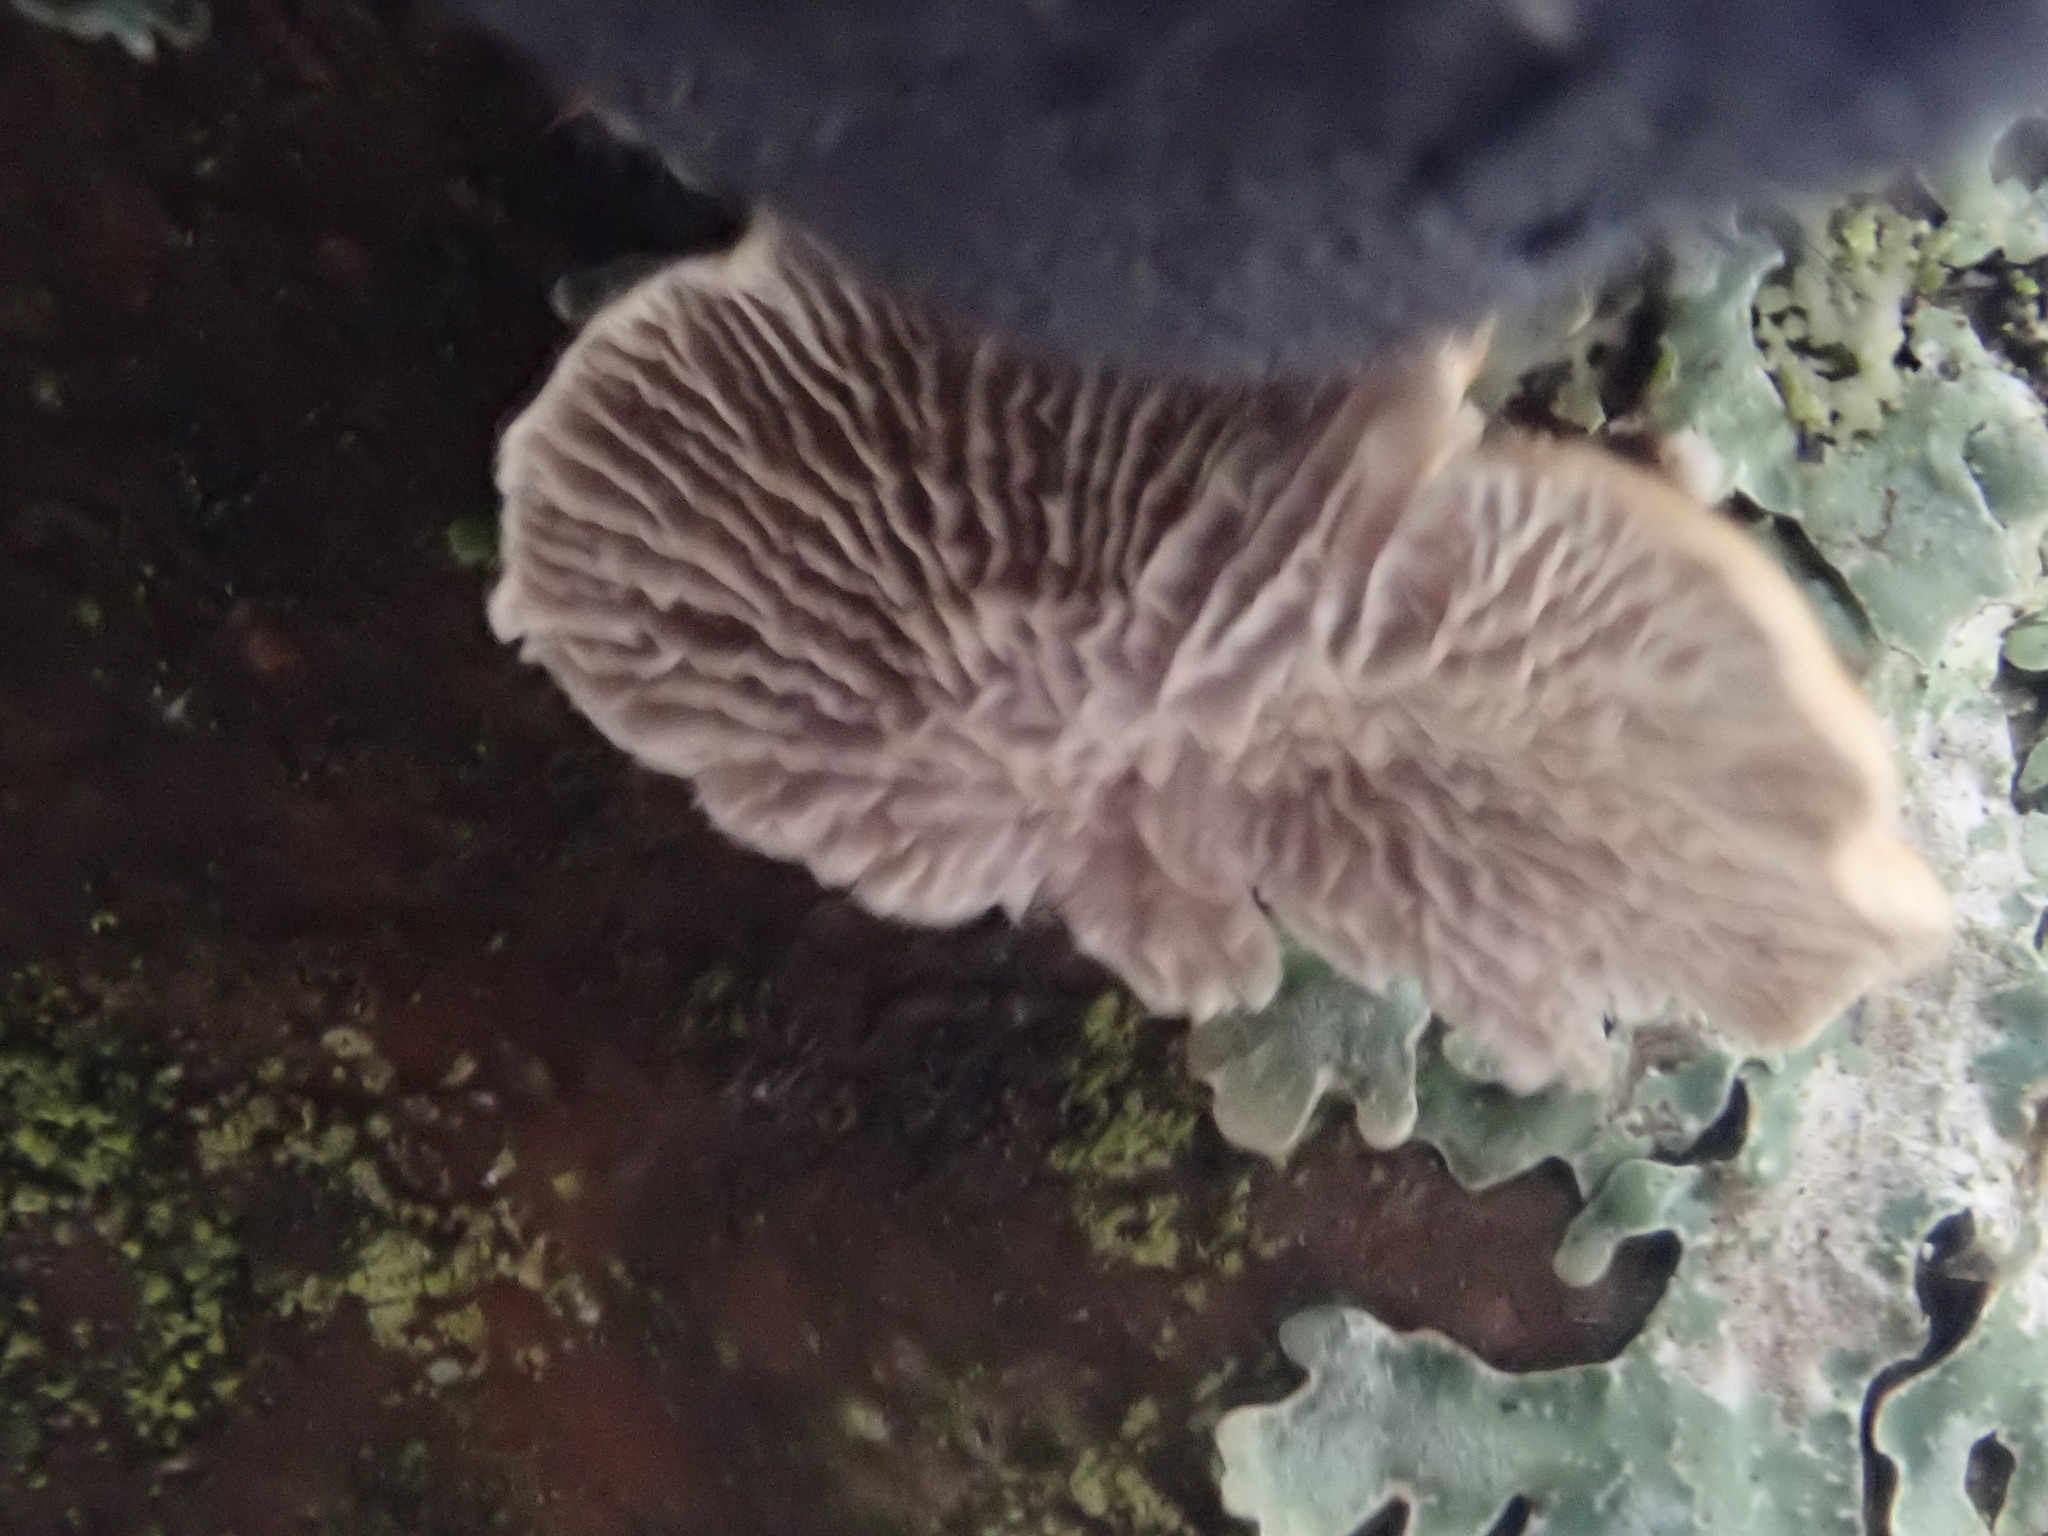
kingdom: Fungi
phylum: Basidiomycota
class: Agaricomycetes
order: Amylocorticiales
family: Amylocorticiaceae
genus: Plicaturopsis
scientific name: Plicaturopsis crispa
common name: Crimped gill
